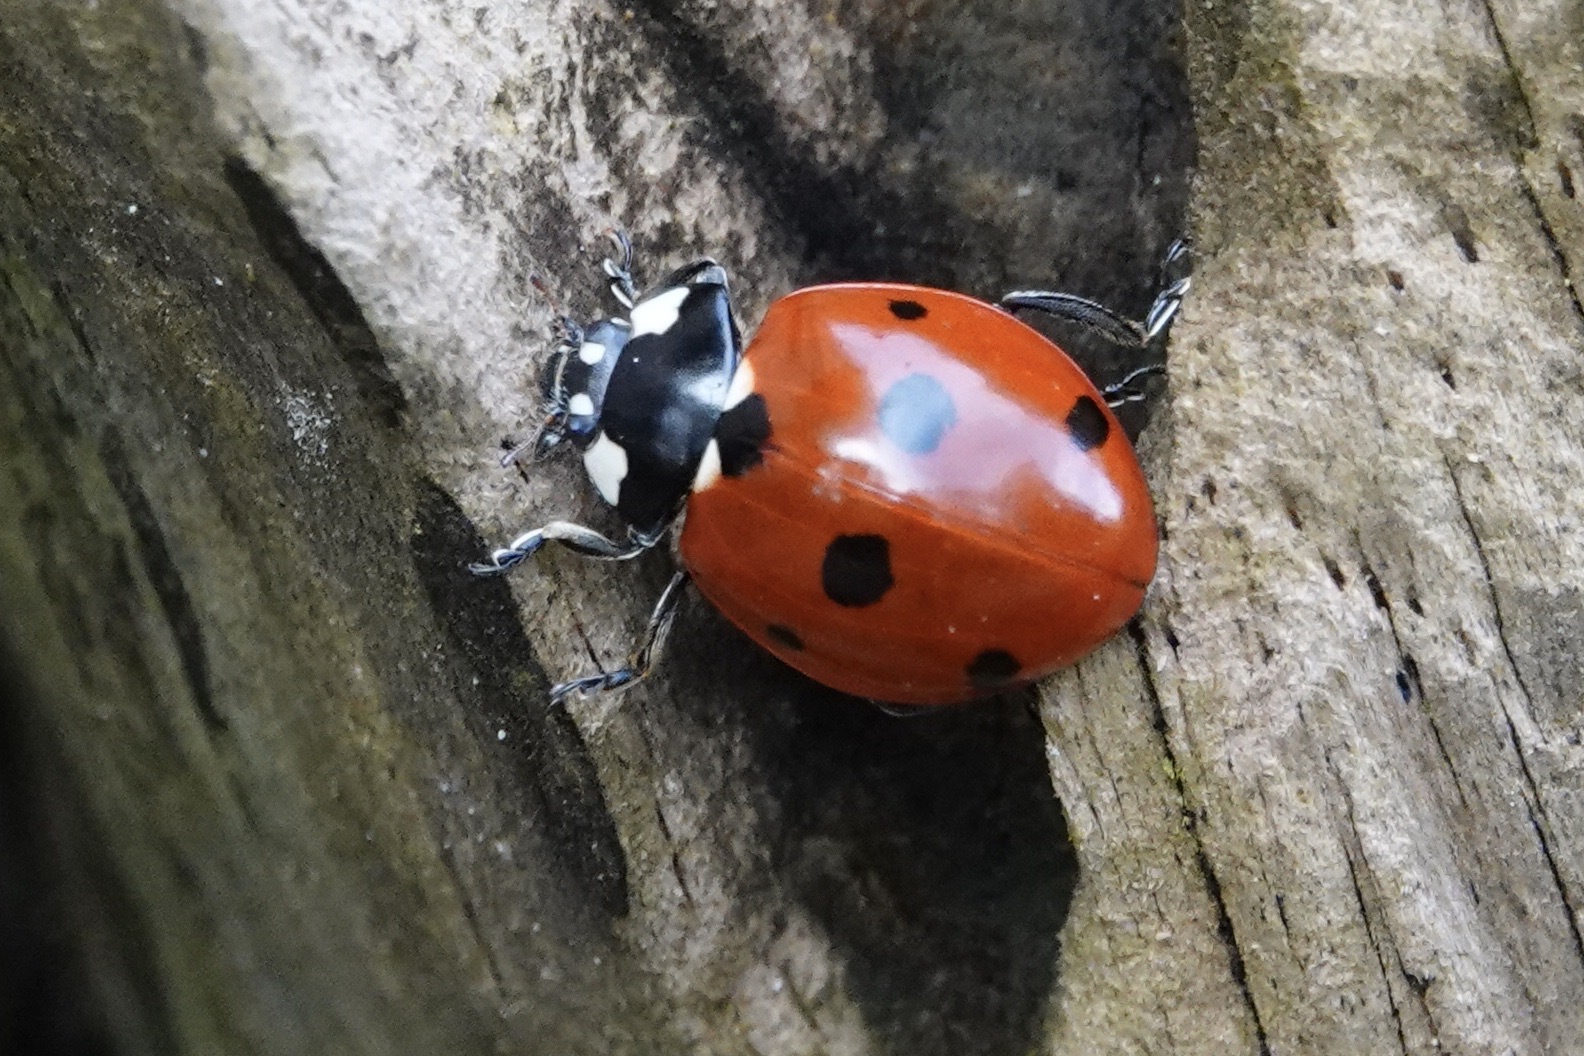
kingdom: Animalia
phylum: Arthropoda
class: Insecta
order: Coleoptera
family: Coccinellidae
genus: Coccinella
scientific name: Coccinella septempunctata
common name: Sevenspotted lady beetle
